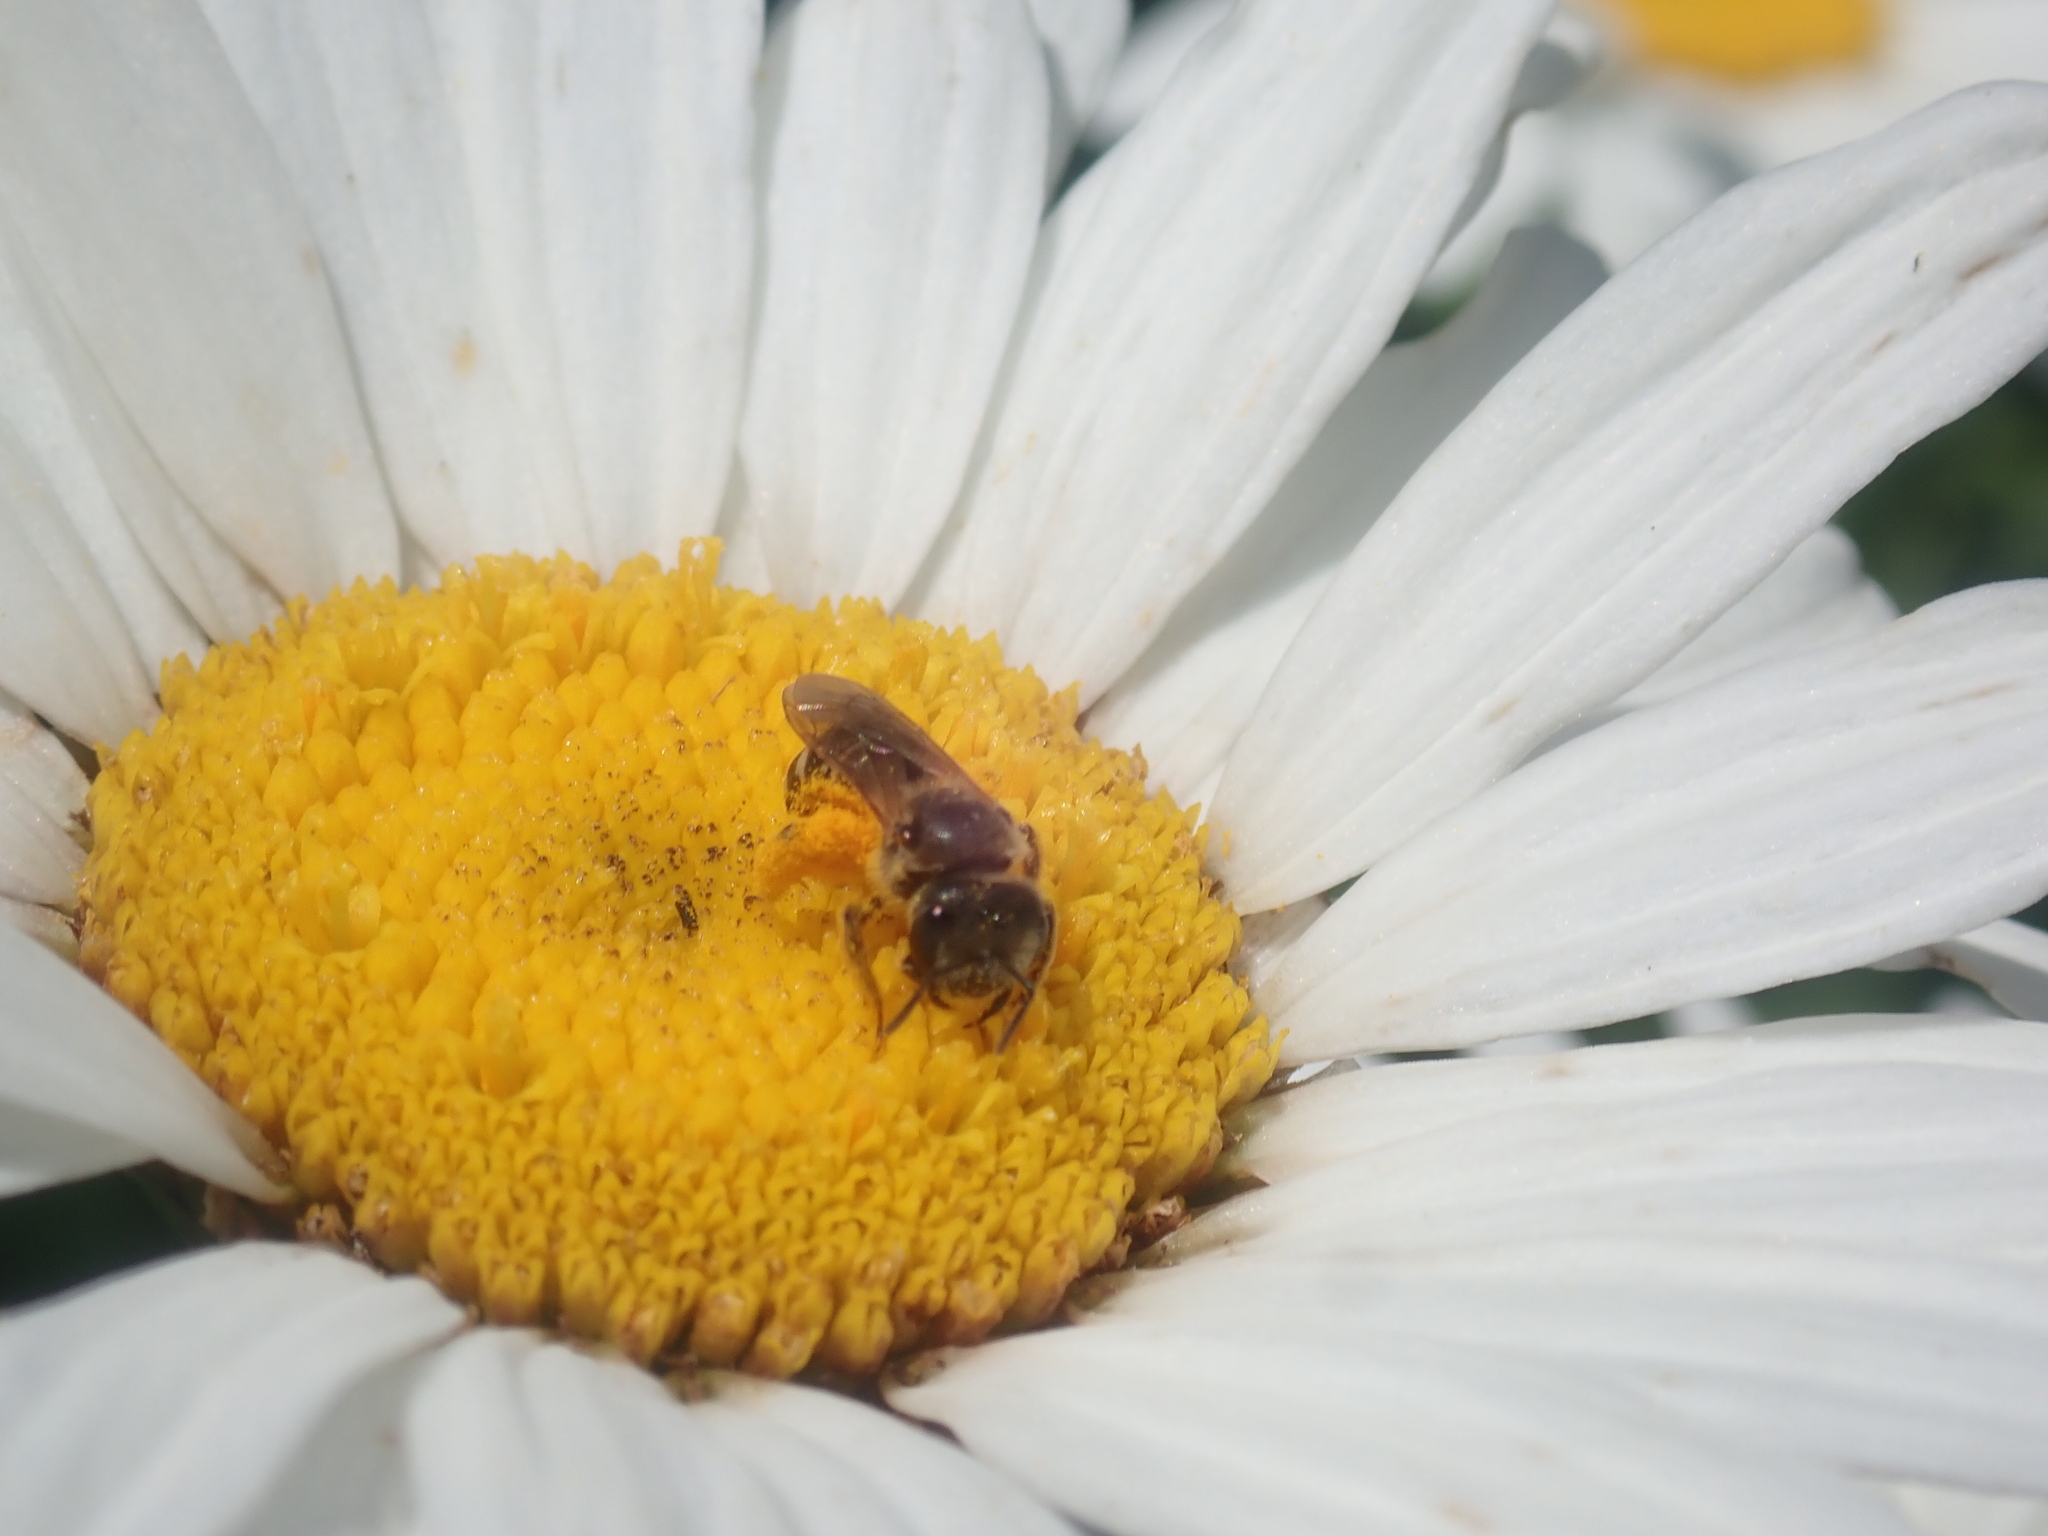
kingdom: Animalia
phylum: Arthropoda
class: Insecta
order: Hymenoptera
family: Halictidae
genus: Halictus
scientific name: Halictus ligatus
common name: Ligated furrow bee
